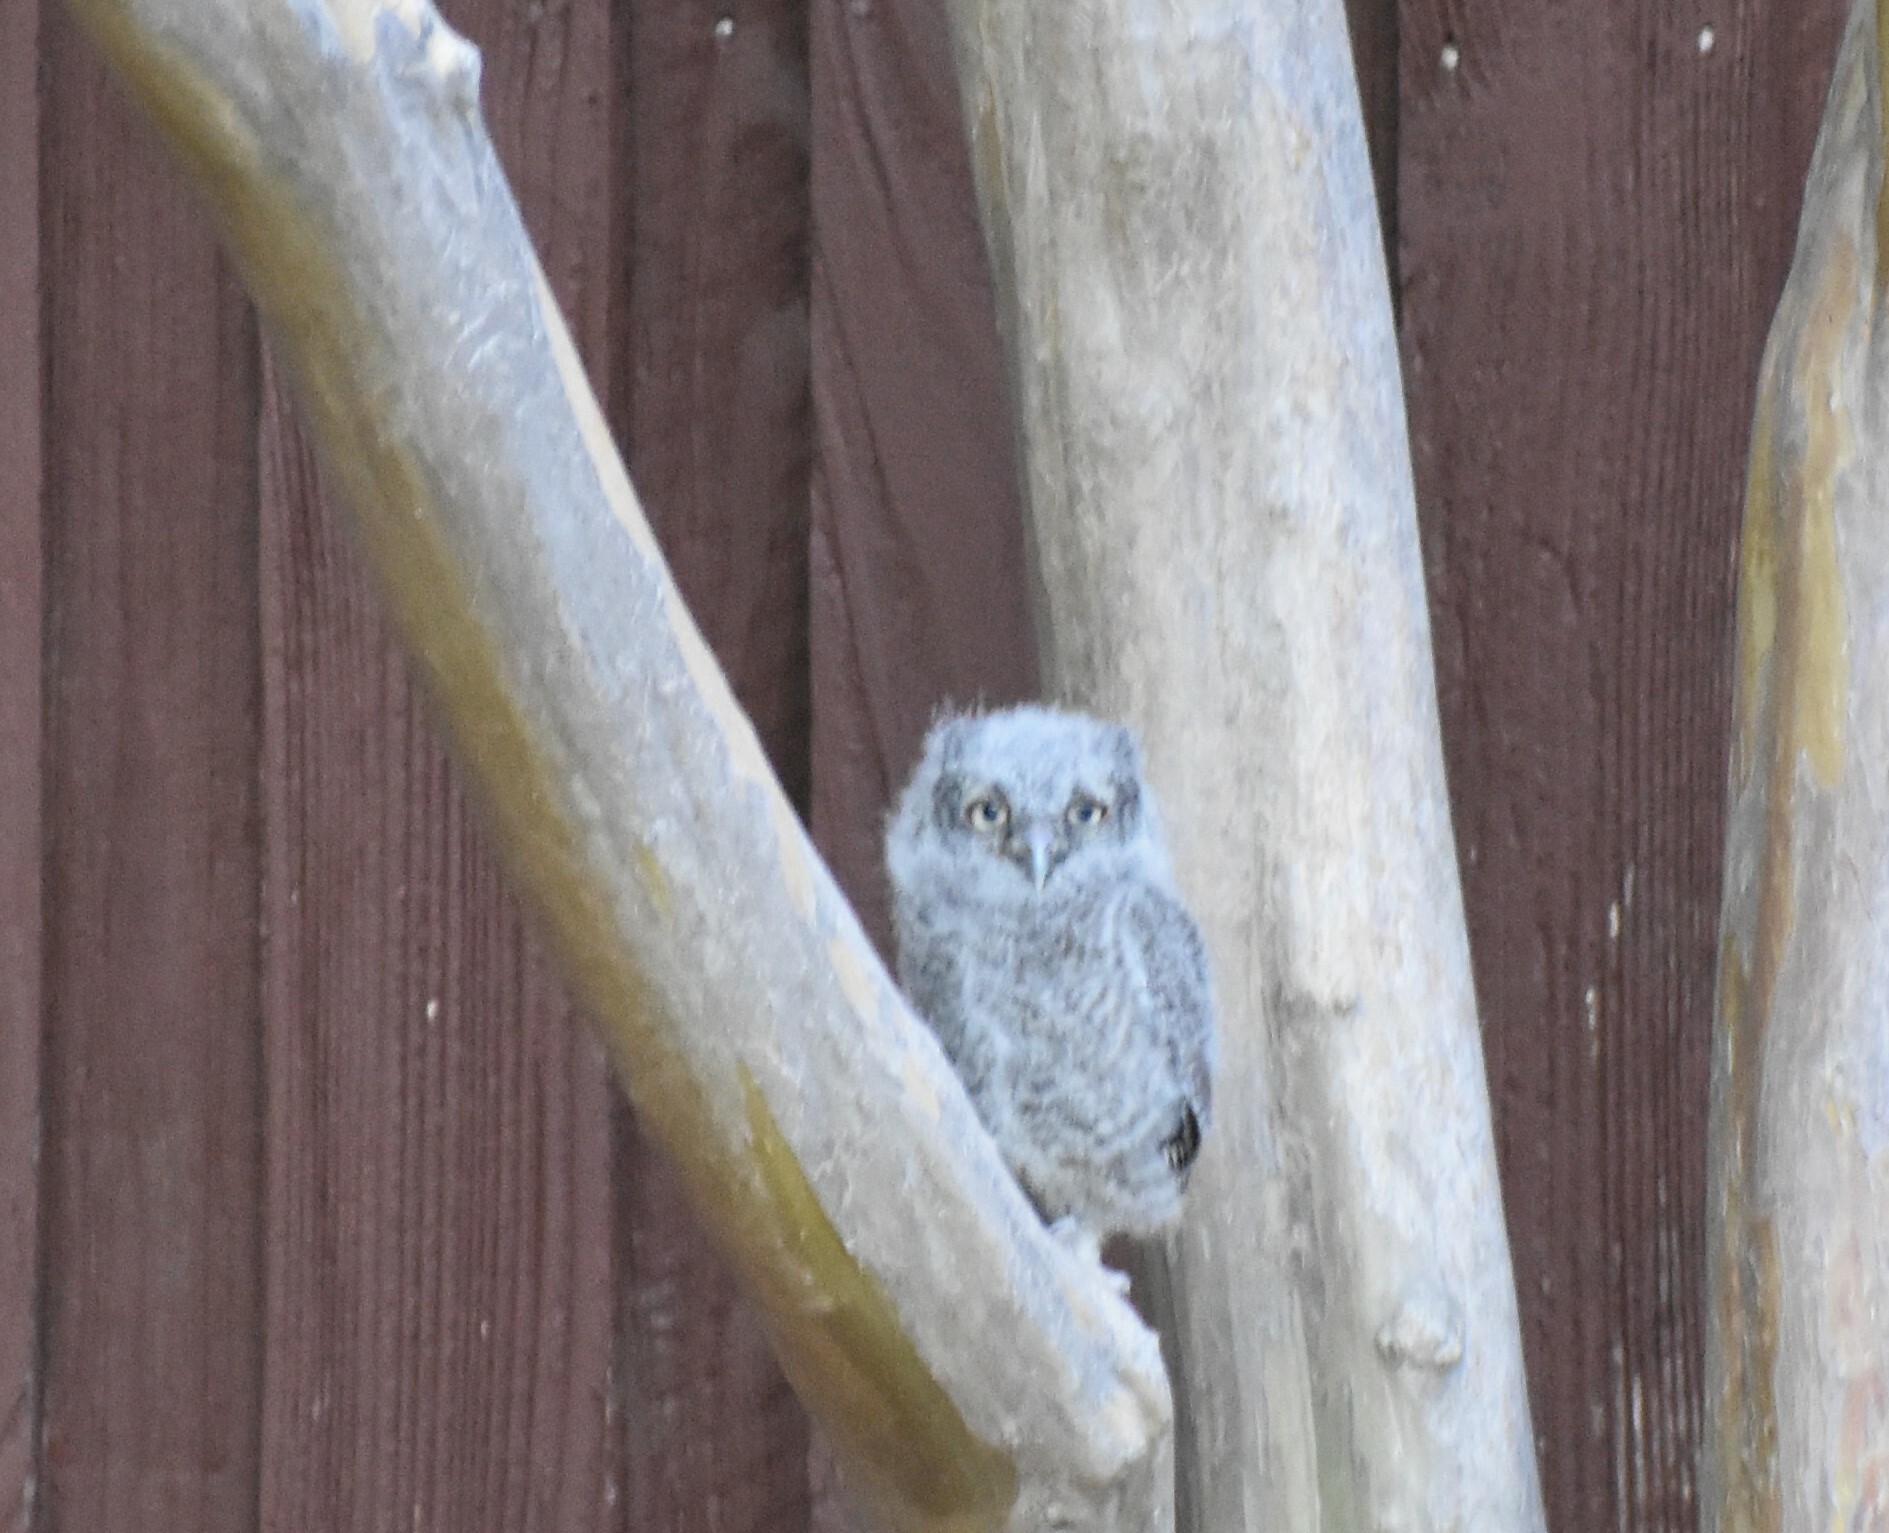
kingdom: Animalia
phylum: Chordata
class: Aves
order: Strigiformes
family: Strigidae
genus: Megascops
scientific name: Megascops asio
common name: Eastern screech-owl
